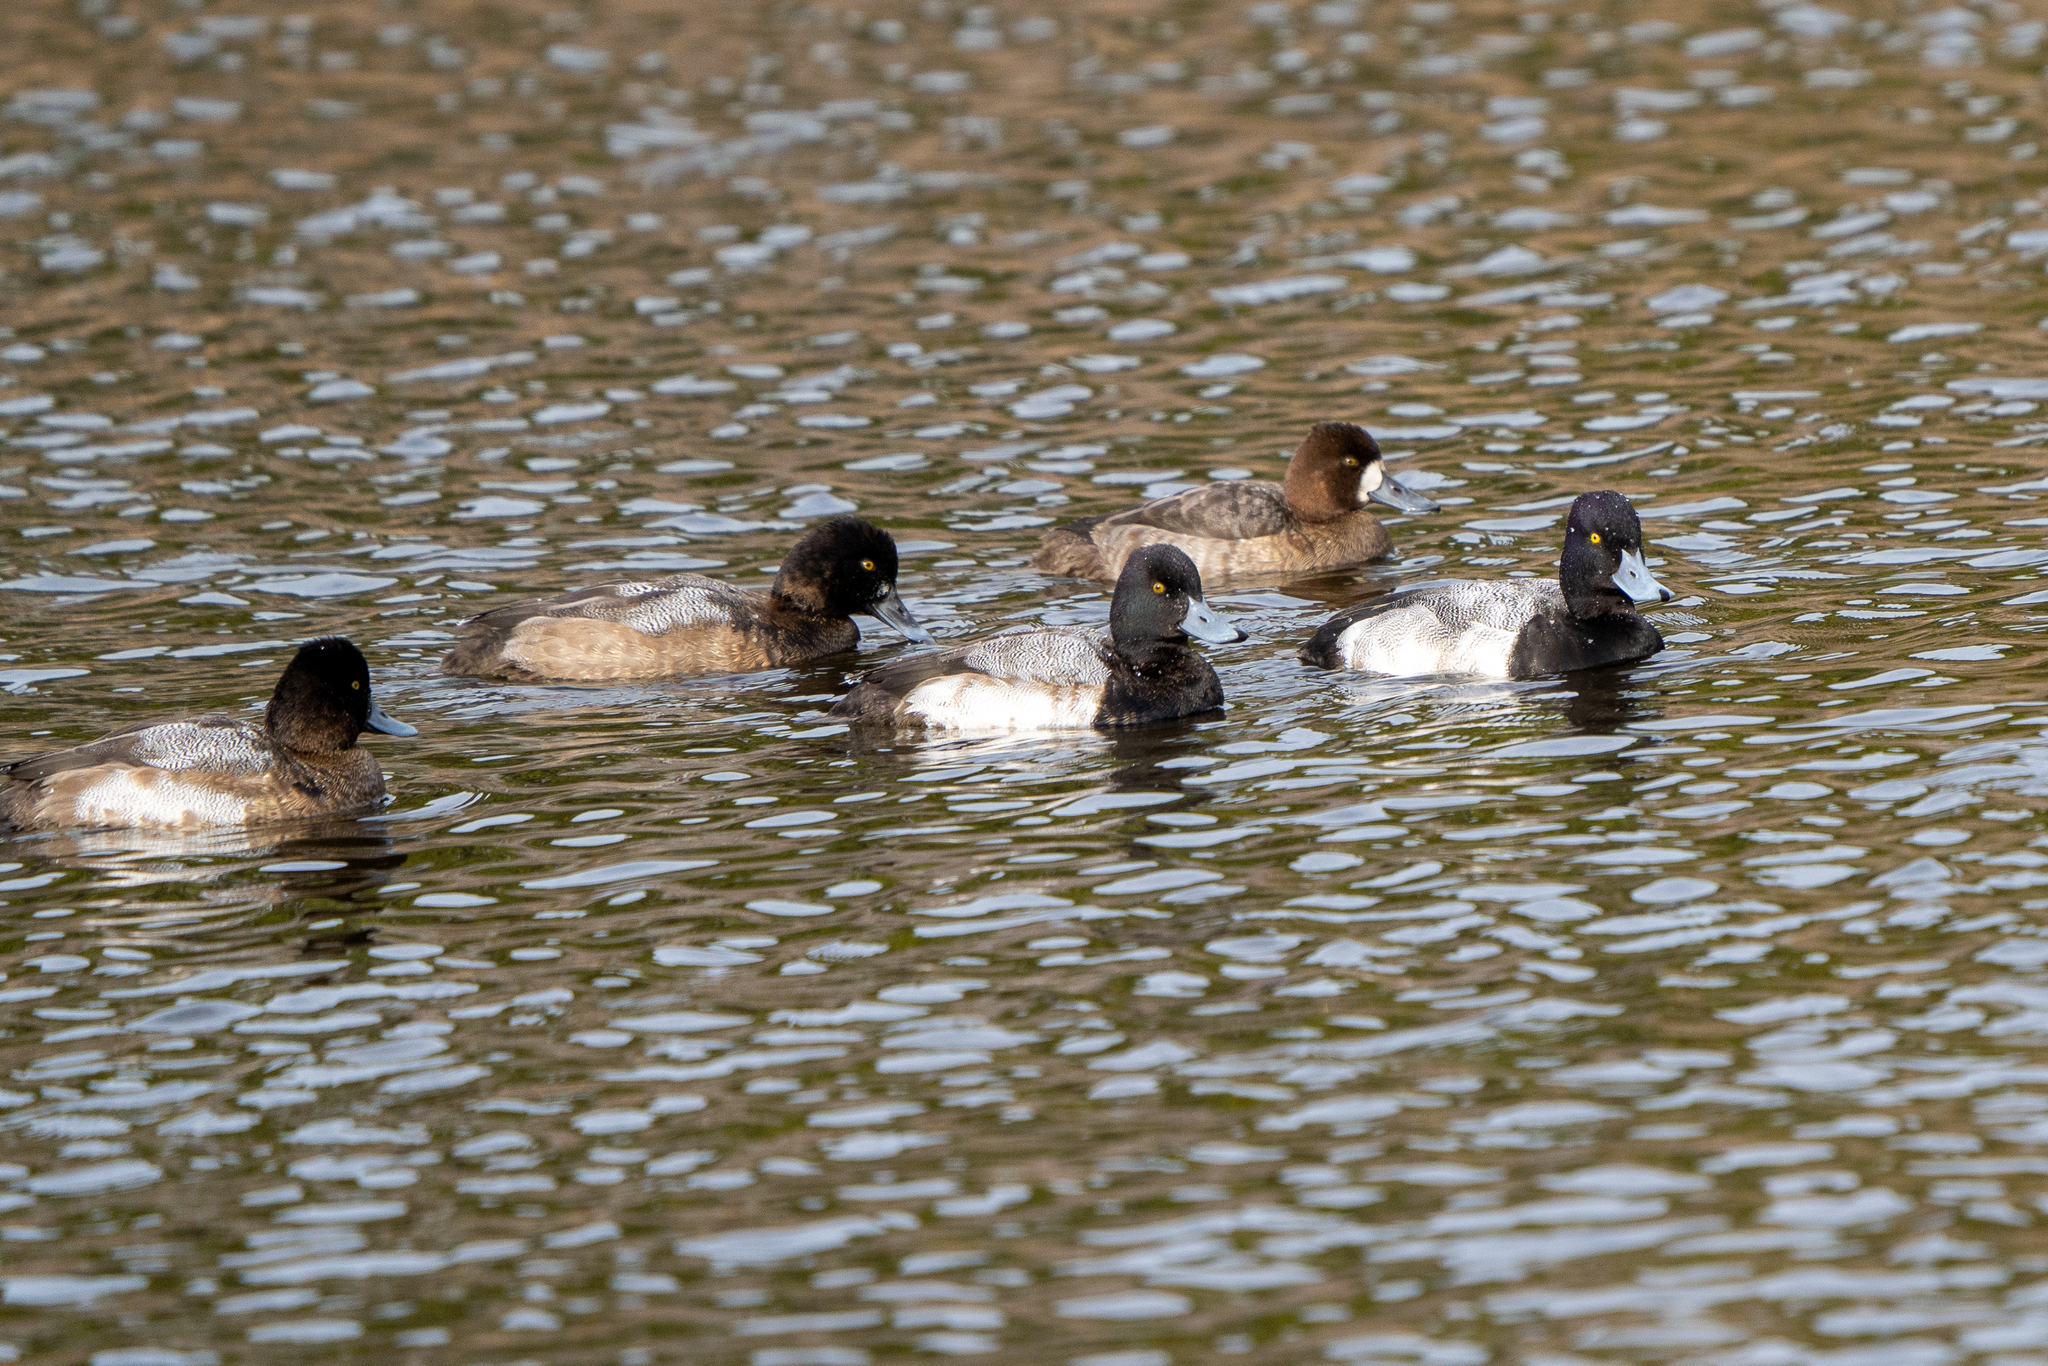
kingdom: Animalia
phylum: Chordata
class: Aves
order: Anseriformes
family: Anatidae
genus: Aythya
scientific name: Aythya affinis
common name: Lesser scaup
